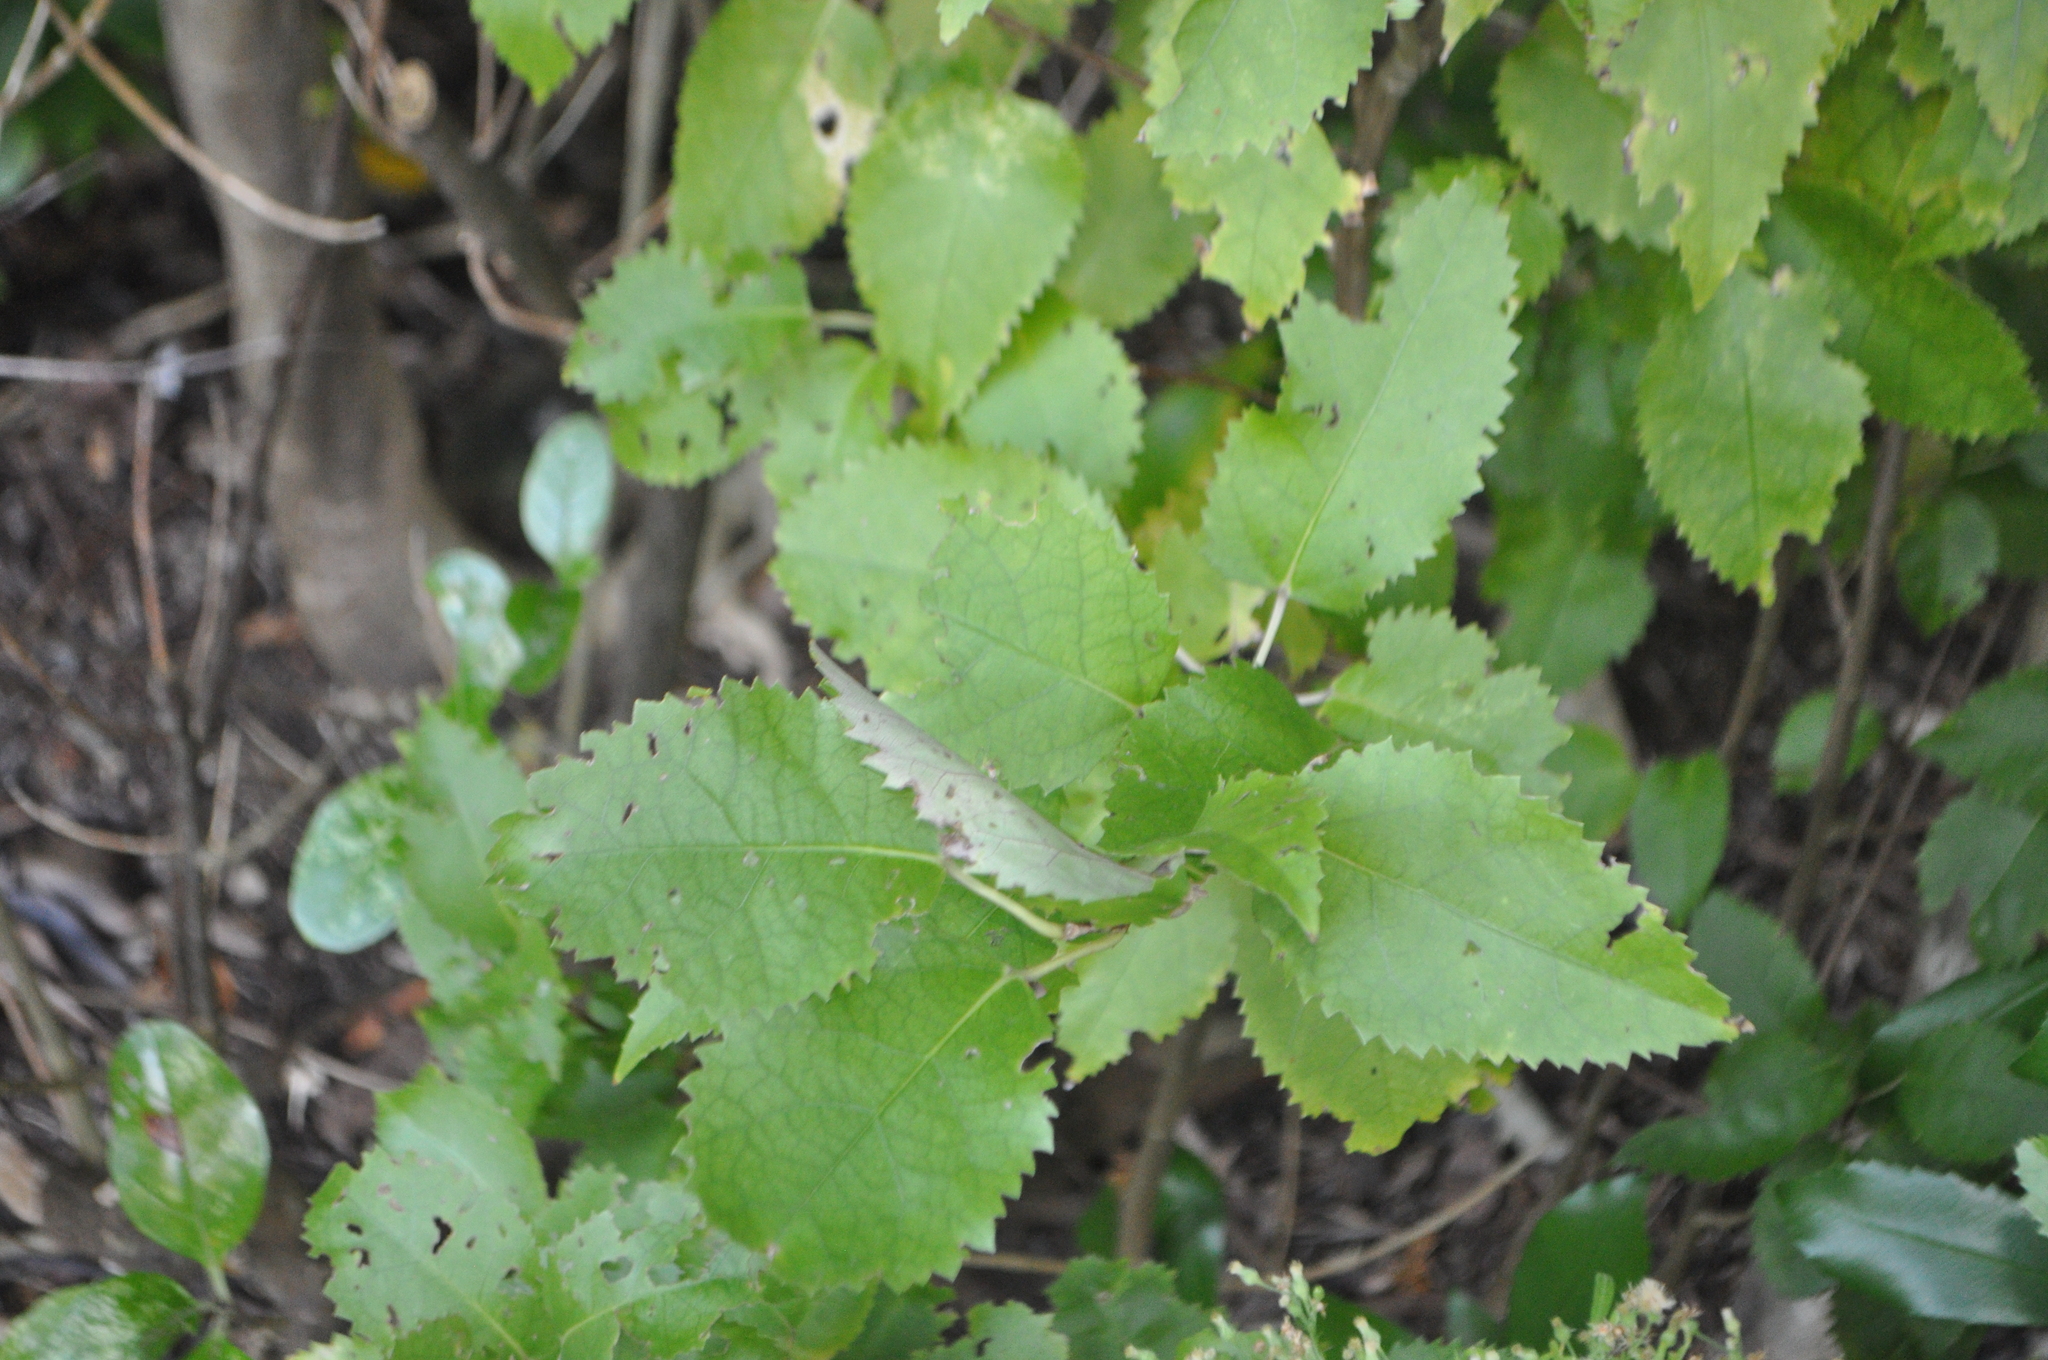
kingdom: Plantae
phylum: Tracheophyta
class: Magnoliopsida
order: Malvales
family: Malvaceae
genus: Hoheria
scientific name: Hoheria populnea
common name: Lacebark
